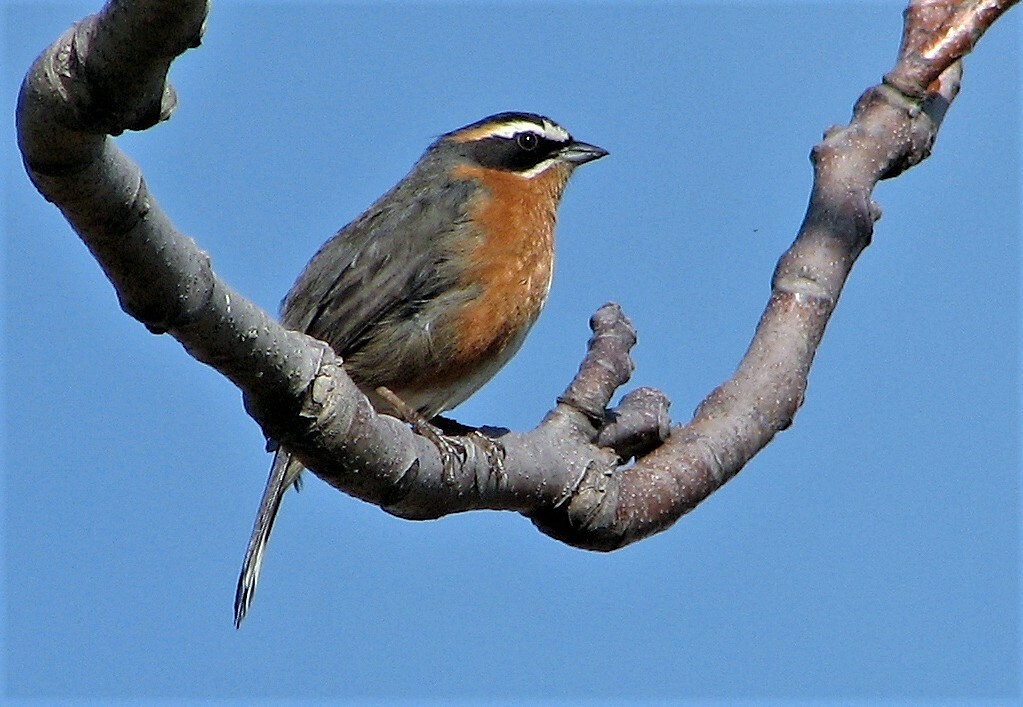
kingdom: Animalia
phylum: Chordata
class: Aves
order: Passeriformes
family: Thraupidae
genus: Poospiza
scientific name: Poospiza nigrorufa
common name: Black-and-rufous warbling finch
